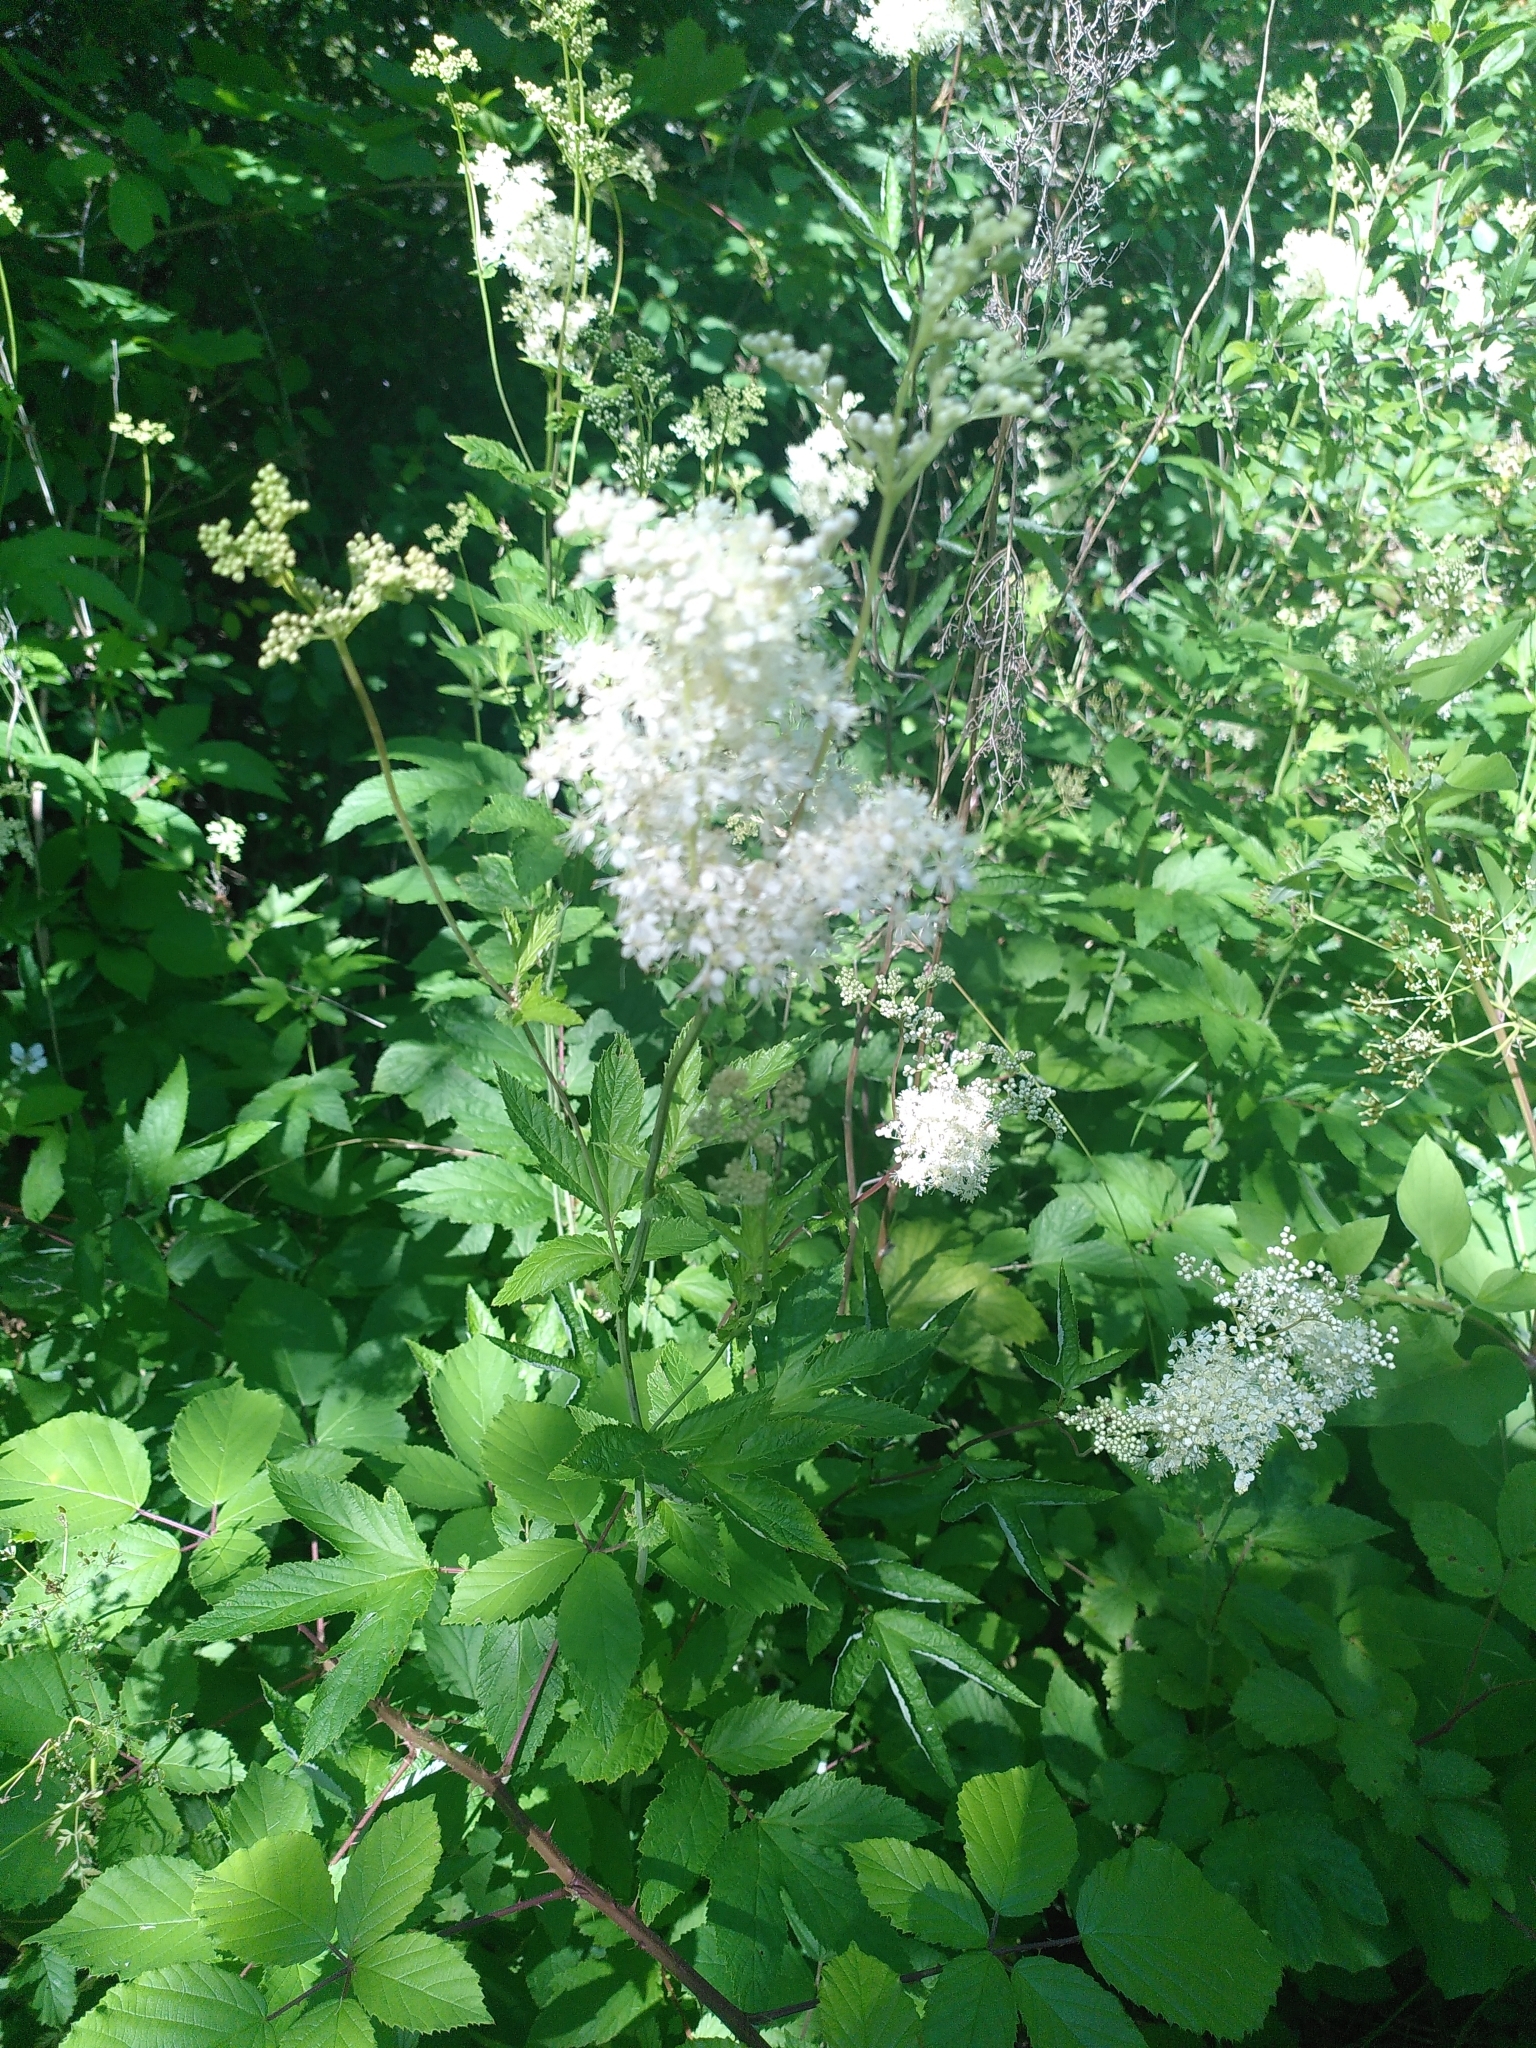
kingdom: Plantae
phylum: Tracheophyta
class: Magnoliopsida
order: Rosales
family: Rosaceae
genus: Filipendula
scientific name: Filipendula ulmaria
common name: Meadowsweet
